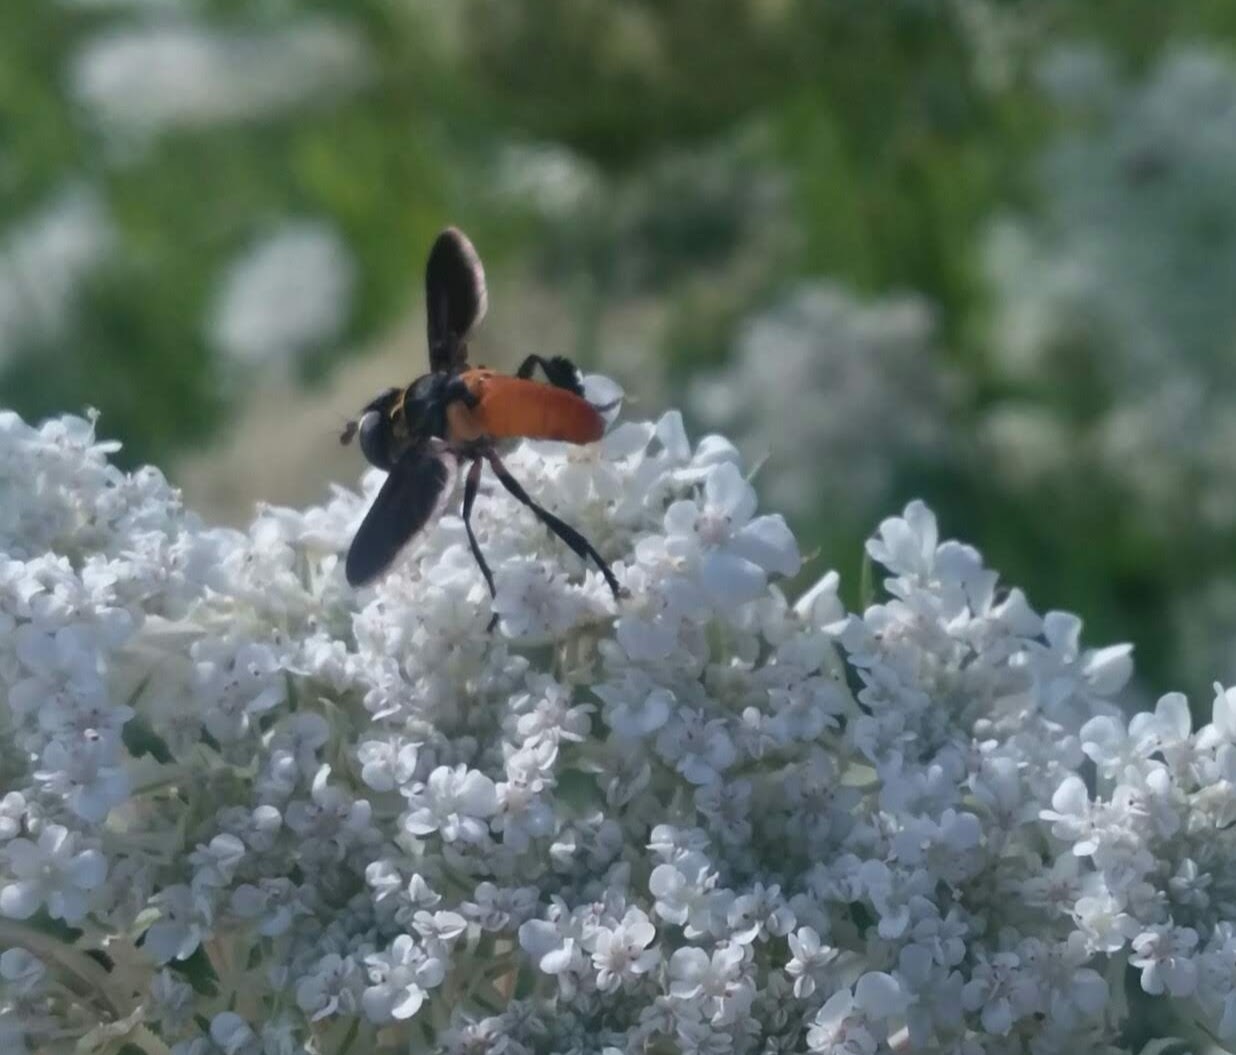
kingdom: Animalia
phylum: Arthropoda
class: Insecta
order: Diptera
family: Tachinidae
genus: Trichopoda
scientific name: Trichopoda pennipes
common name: Tachinid fly
